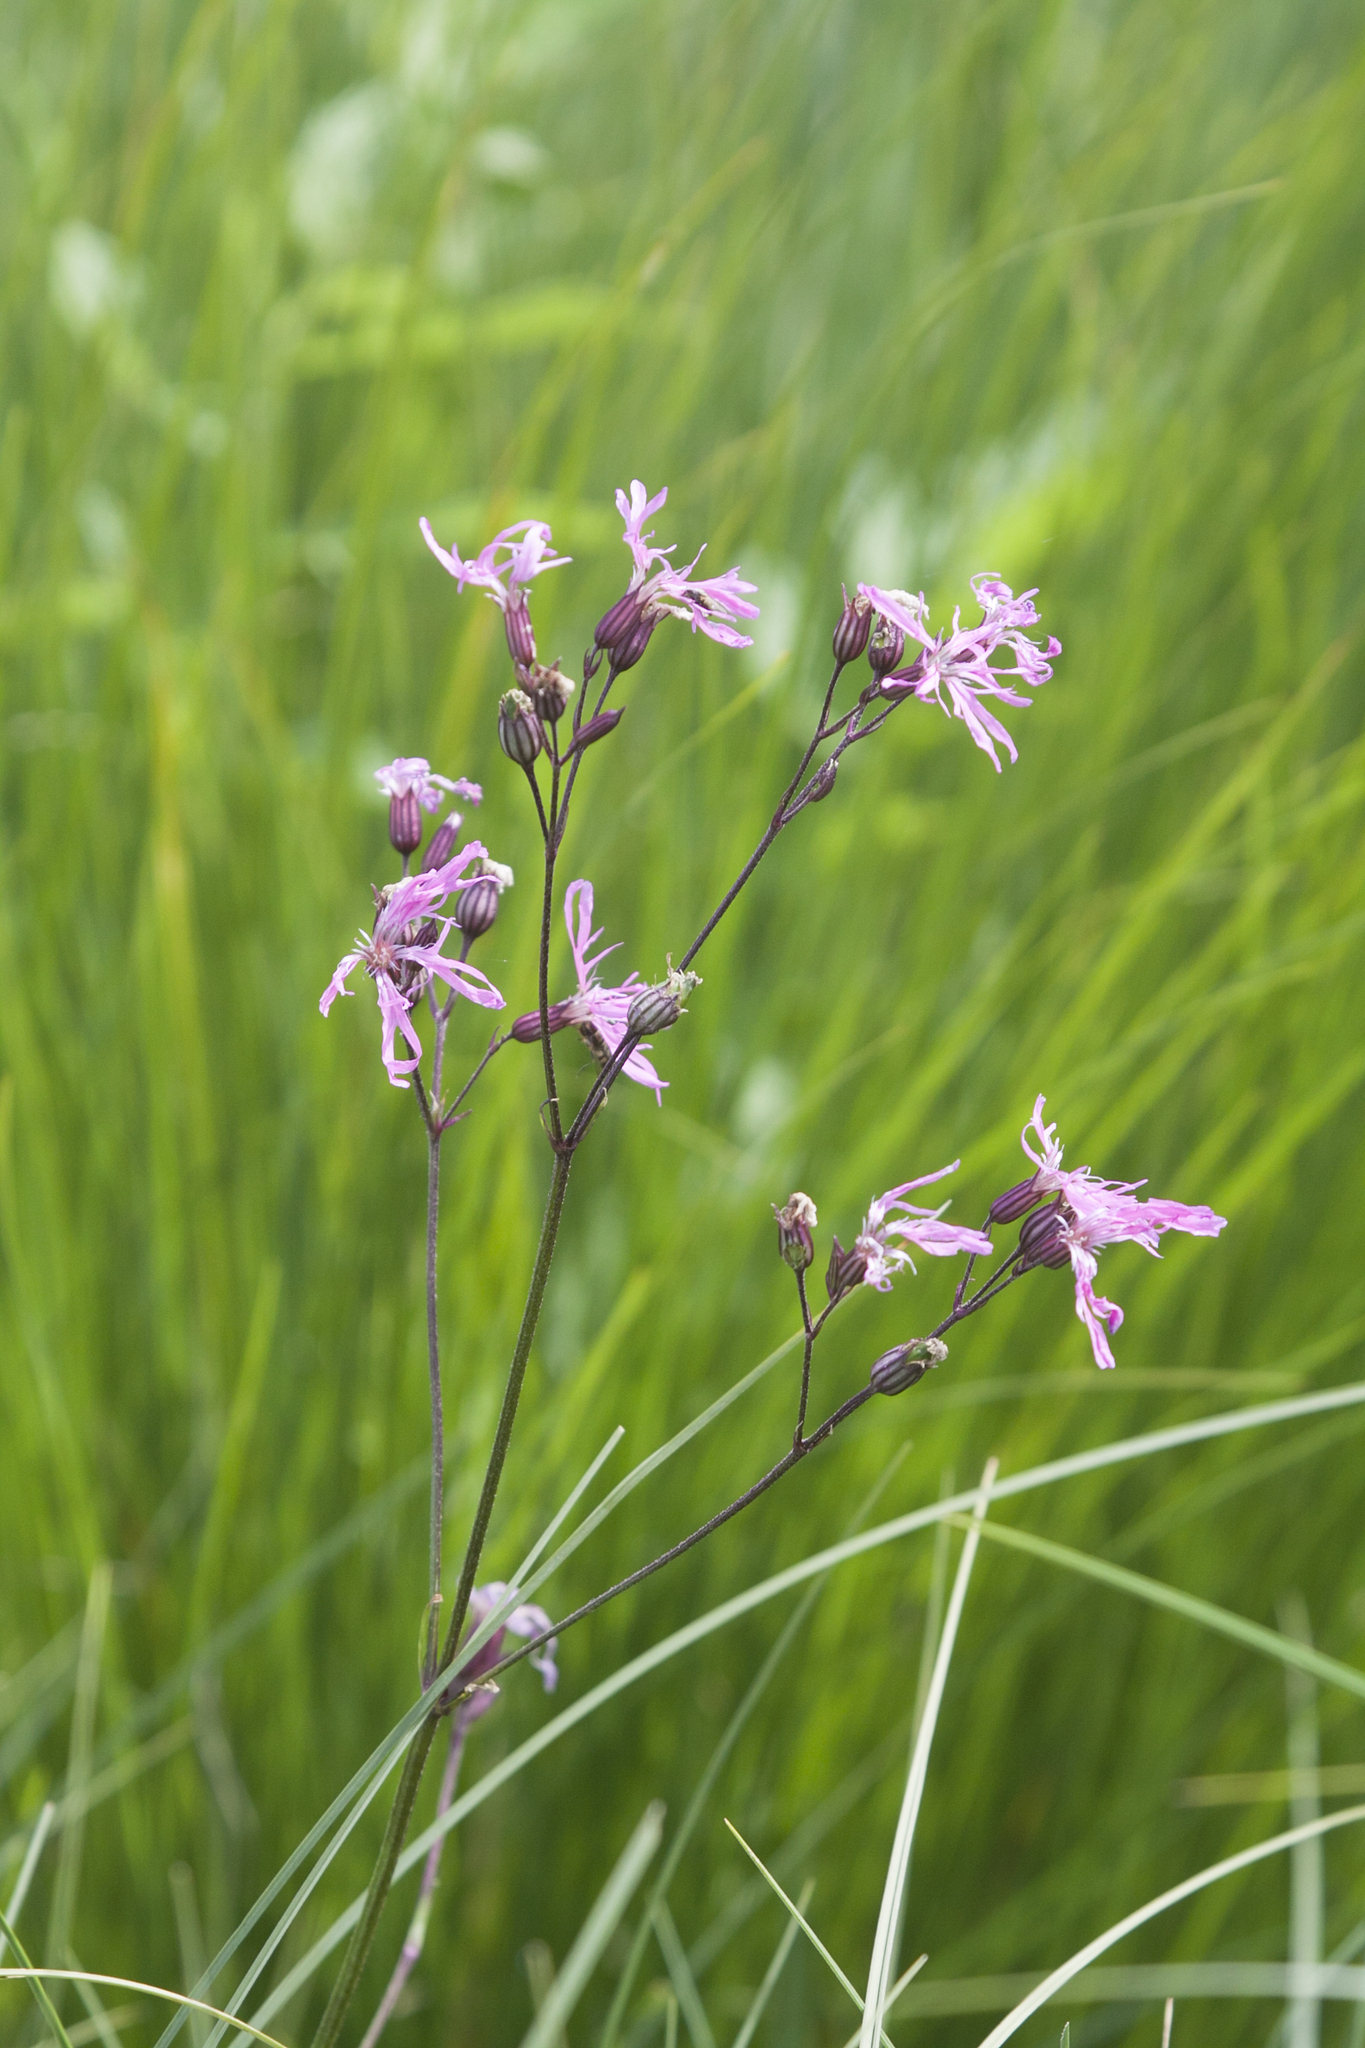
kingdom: Plantae
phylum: Tracheophyta
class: Magnoliopsida
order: Caryophyllales
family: Caryophyllaceae
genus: Silene
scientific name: Silene flos-cuculi
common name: Ragged-robin
